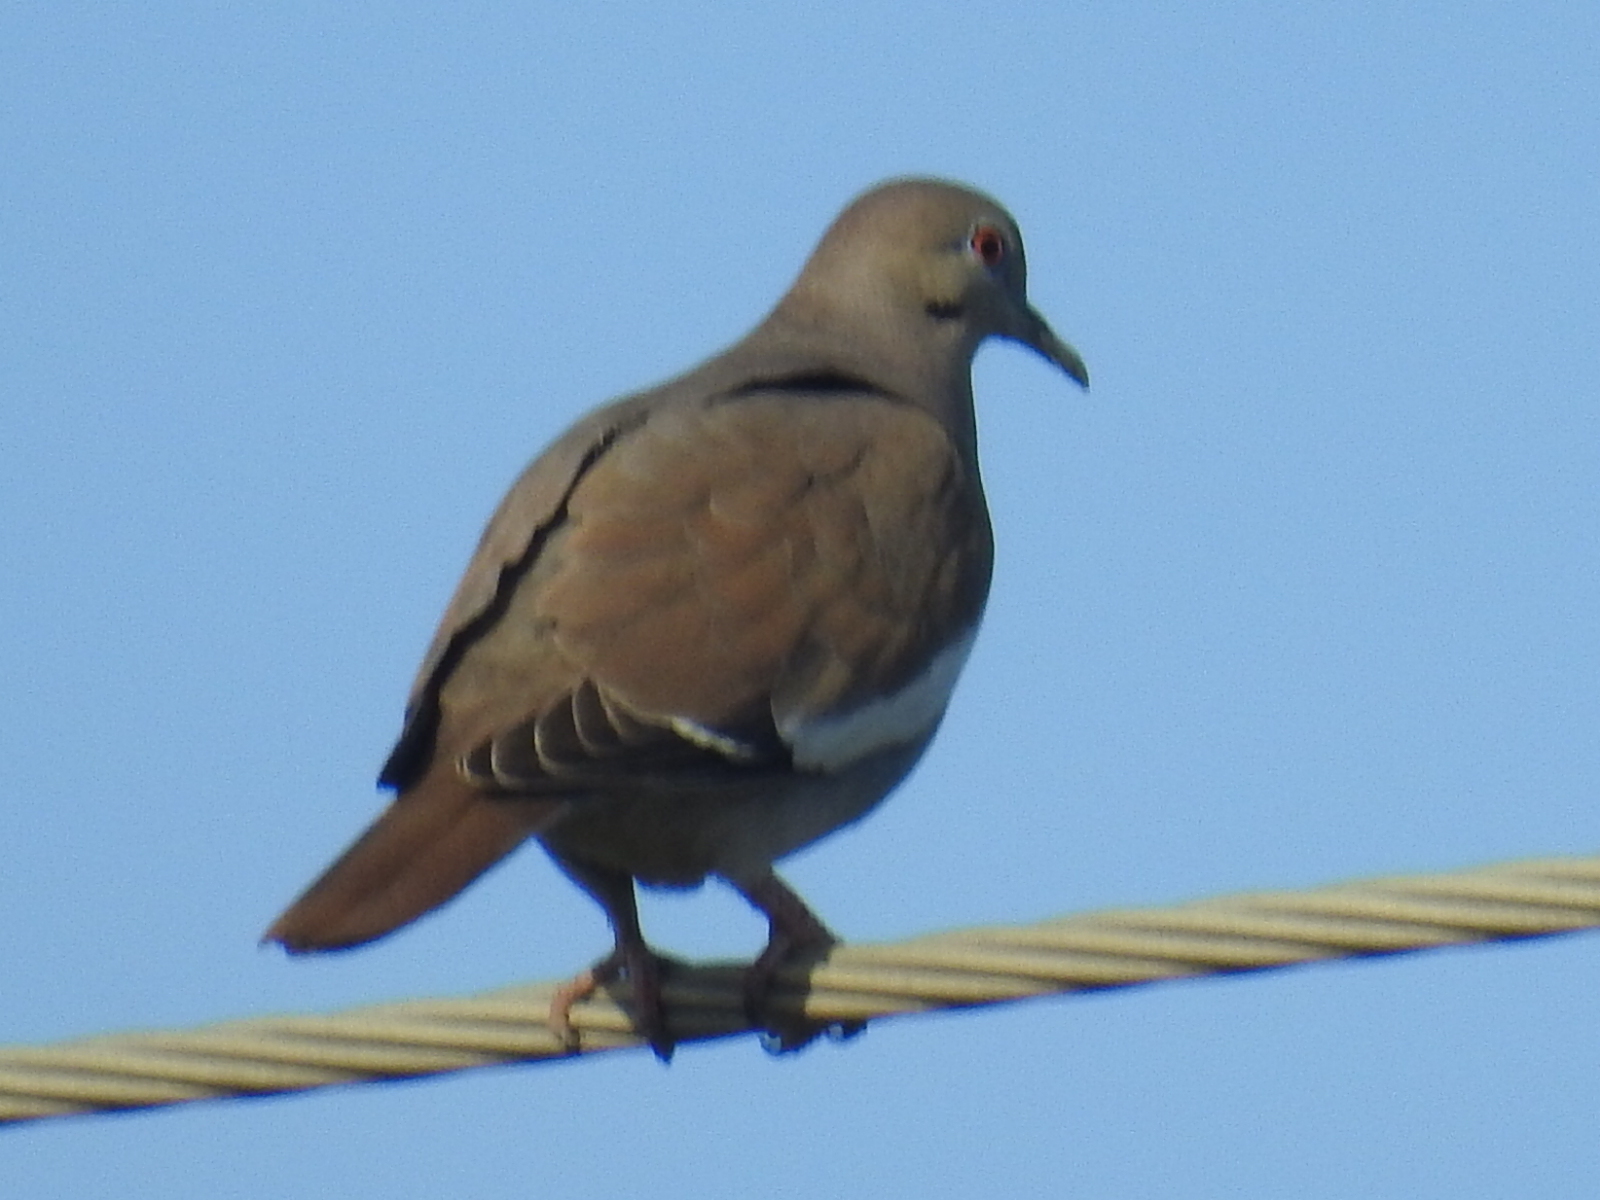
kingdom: Animalia
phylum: Chordata
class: Aves
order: Columbiformes
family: Columbidae
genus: Zenaida
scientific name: Zenaida asiatica
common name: White-winged dove
